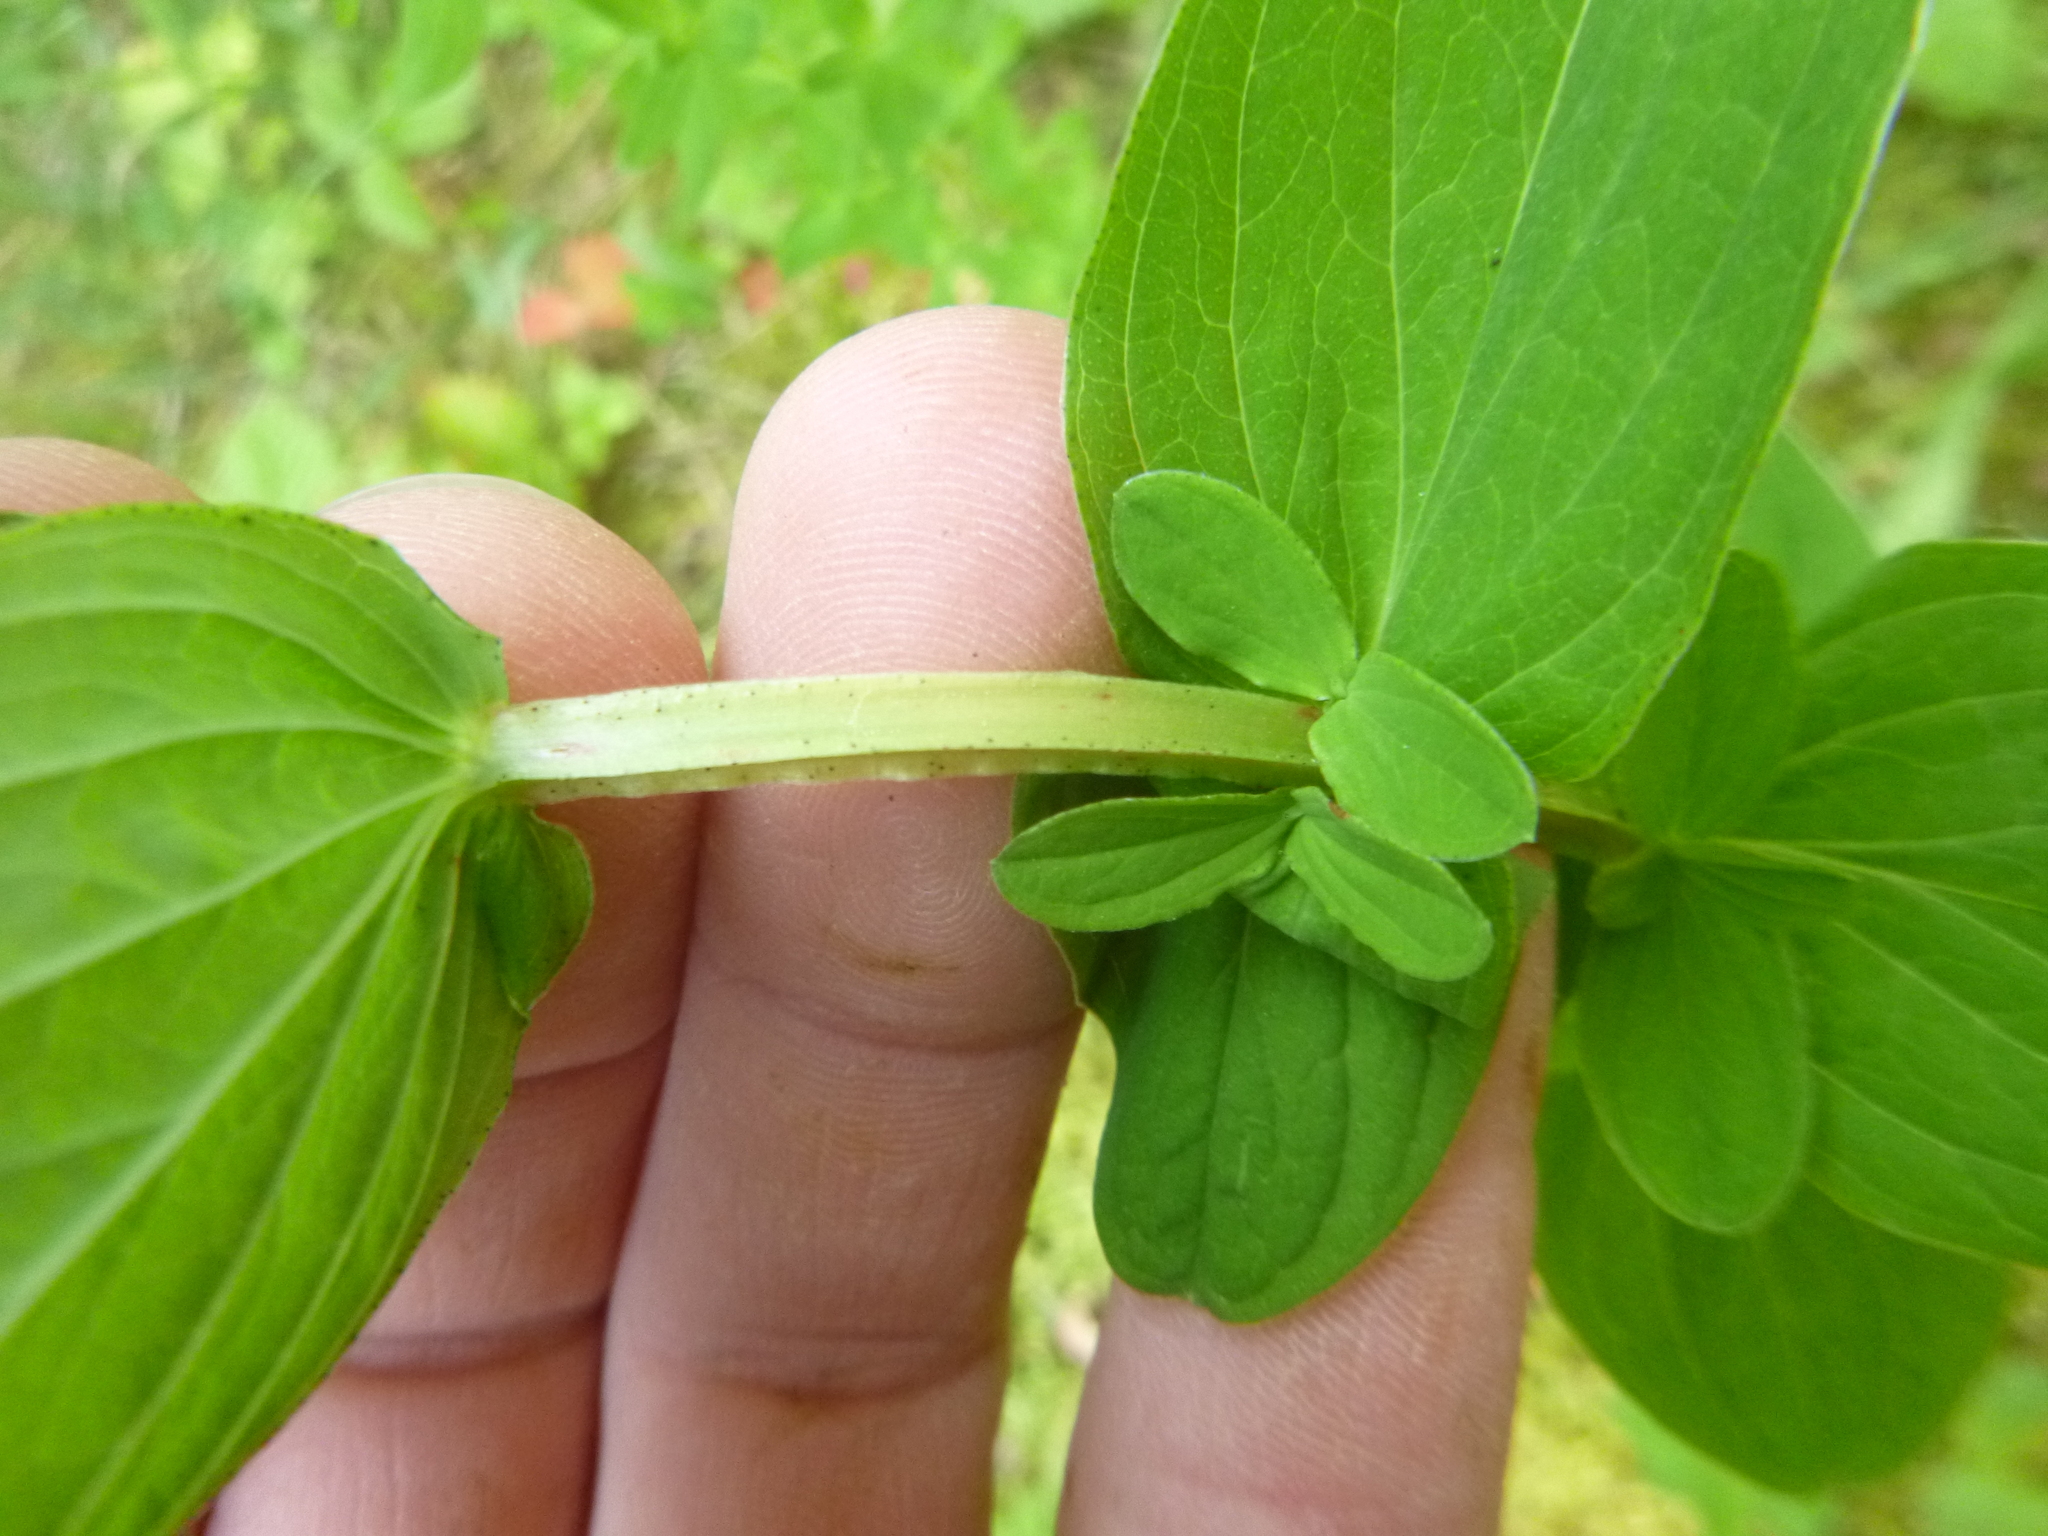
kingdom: Plantae
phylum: Tracheophyta
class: Magnoliopsida
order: Malpighiales
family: Hypericaceae
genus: Hypericum
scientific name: Hypericum tetrapterum
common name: Square-stalked st. john's-wort
